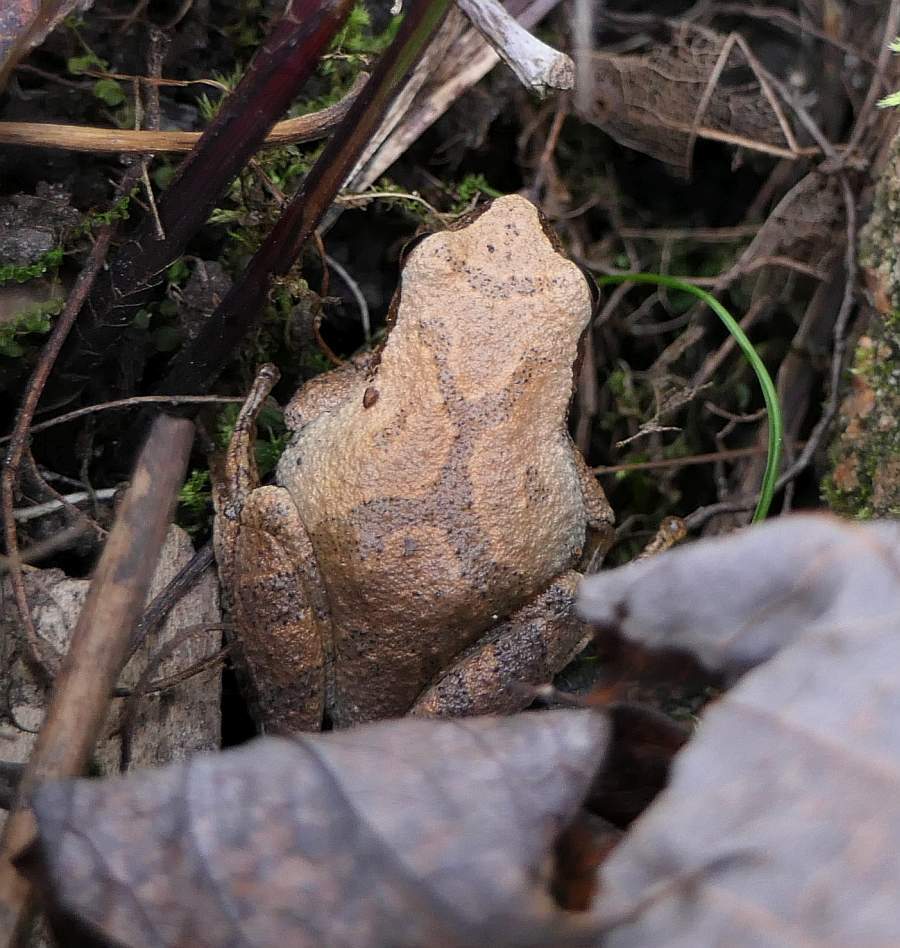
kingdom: Animalia
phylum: Chordata
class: Amphibia
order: Anura
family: Hylidae
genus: Pseudacris
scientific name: Pseudacris crucifer
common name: Spring peeper
